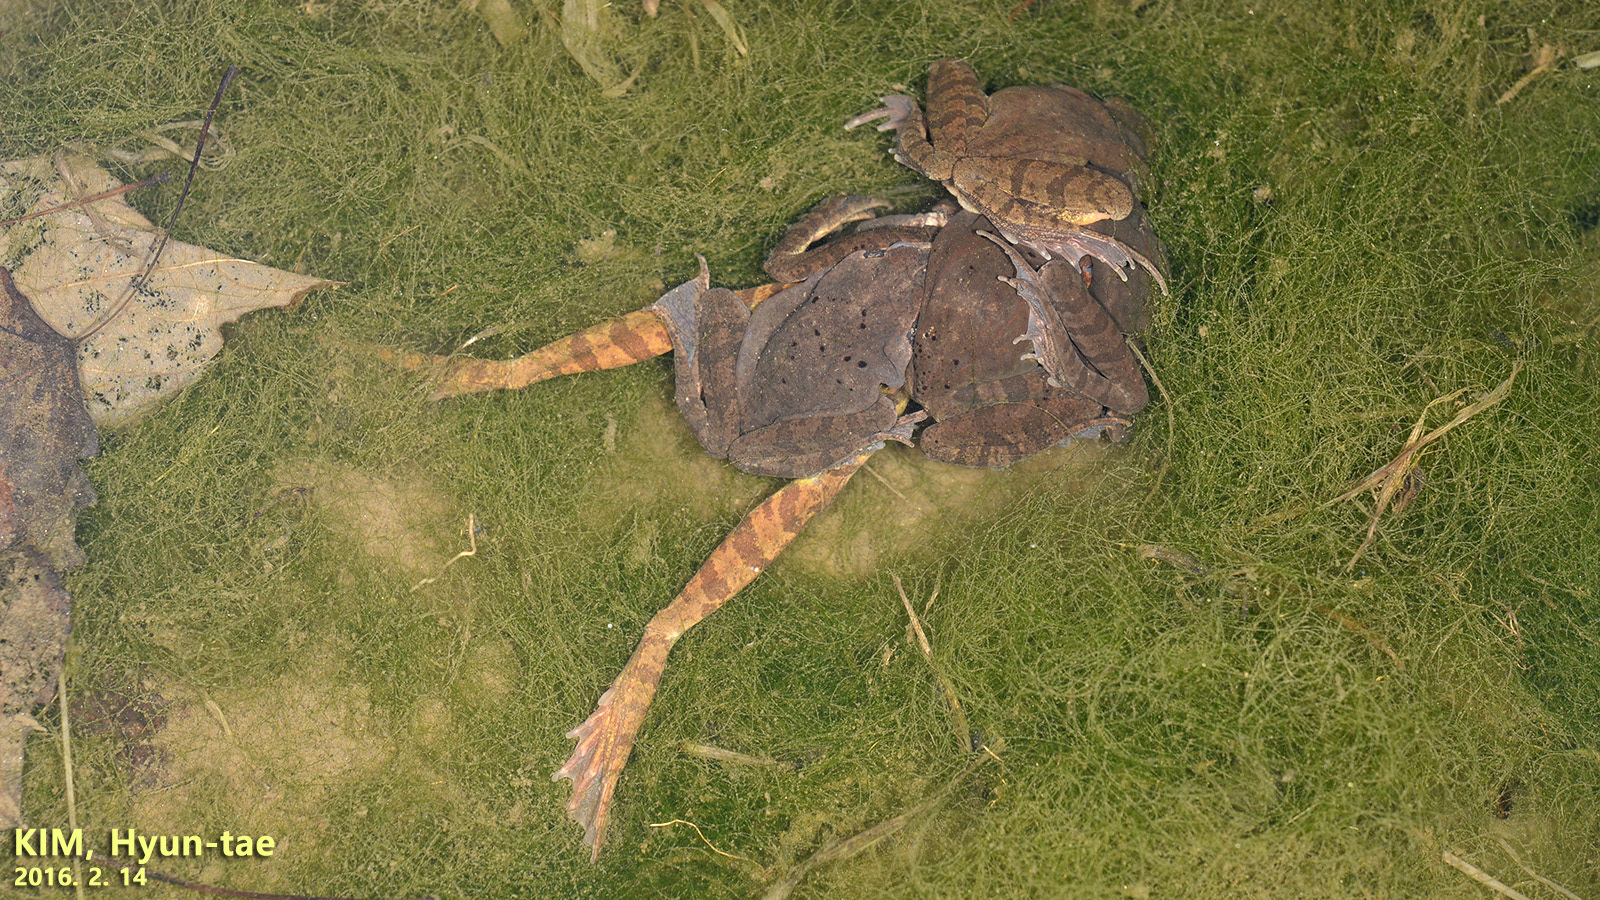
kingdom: Animalia
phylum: Chordata
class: Amphibia
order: Anura
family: Ranidae
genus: Rana
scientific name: Rana uenoi
